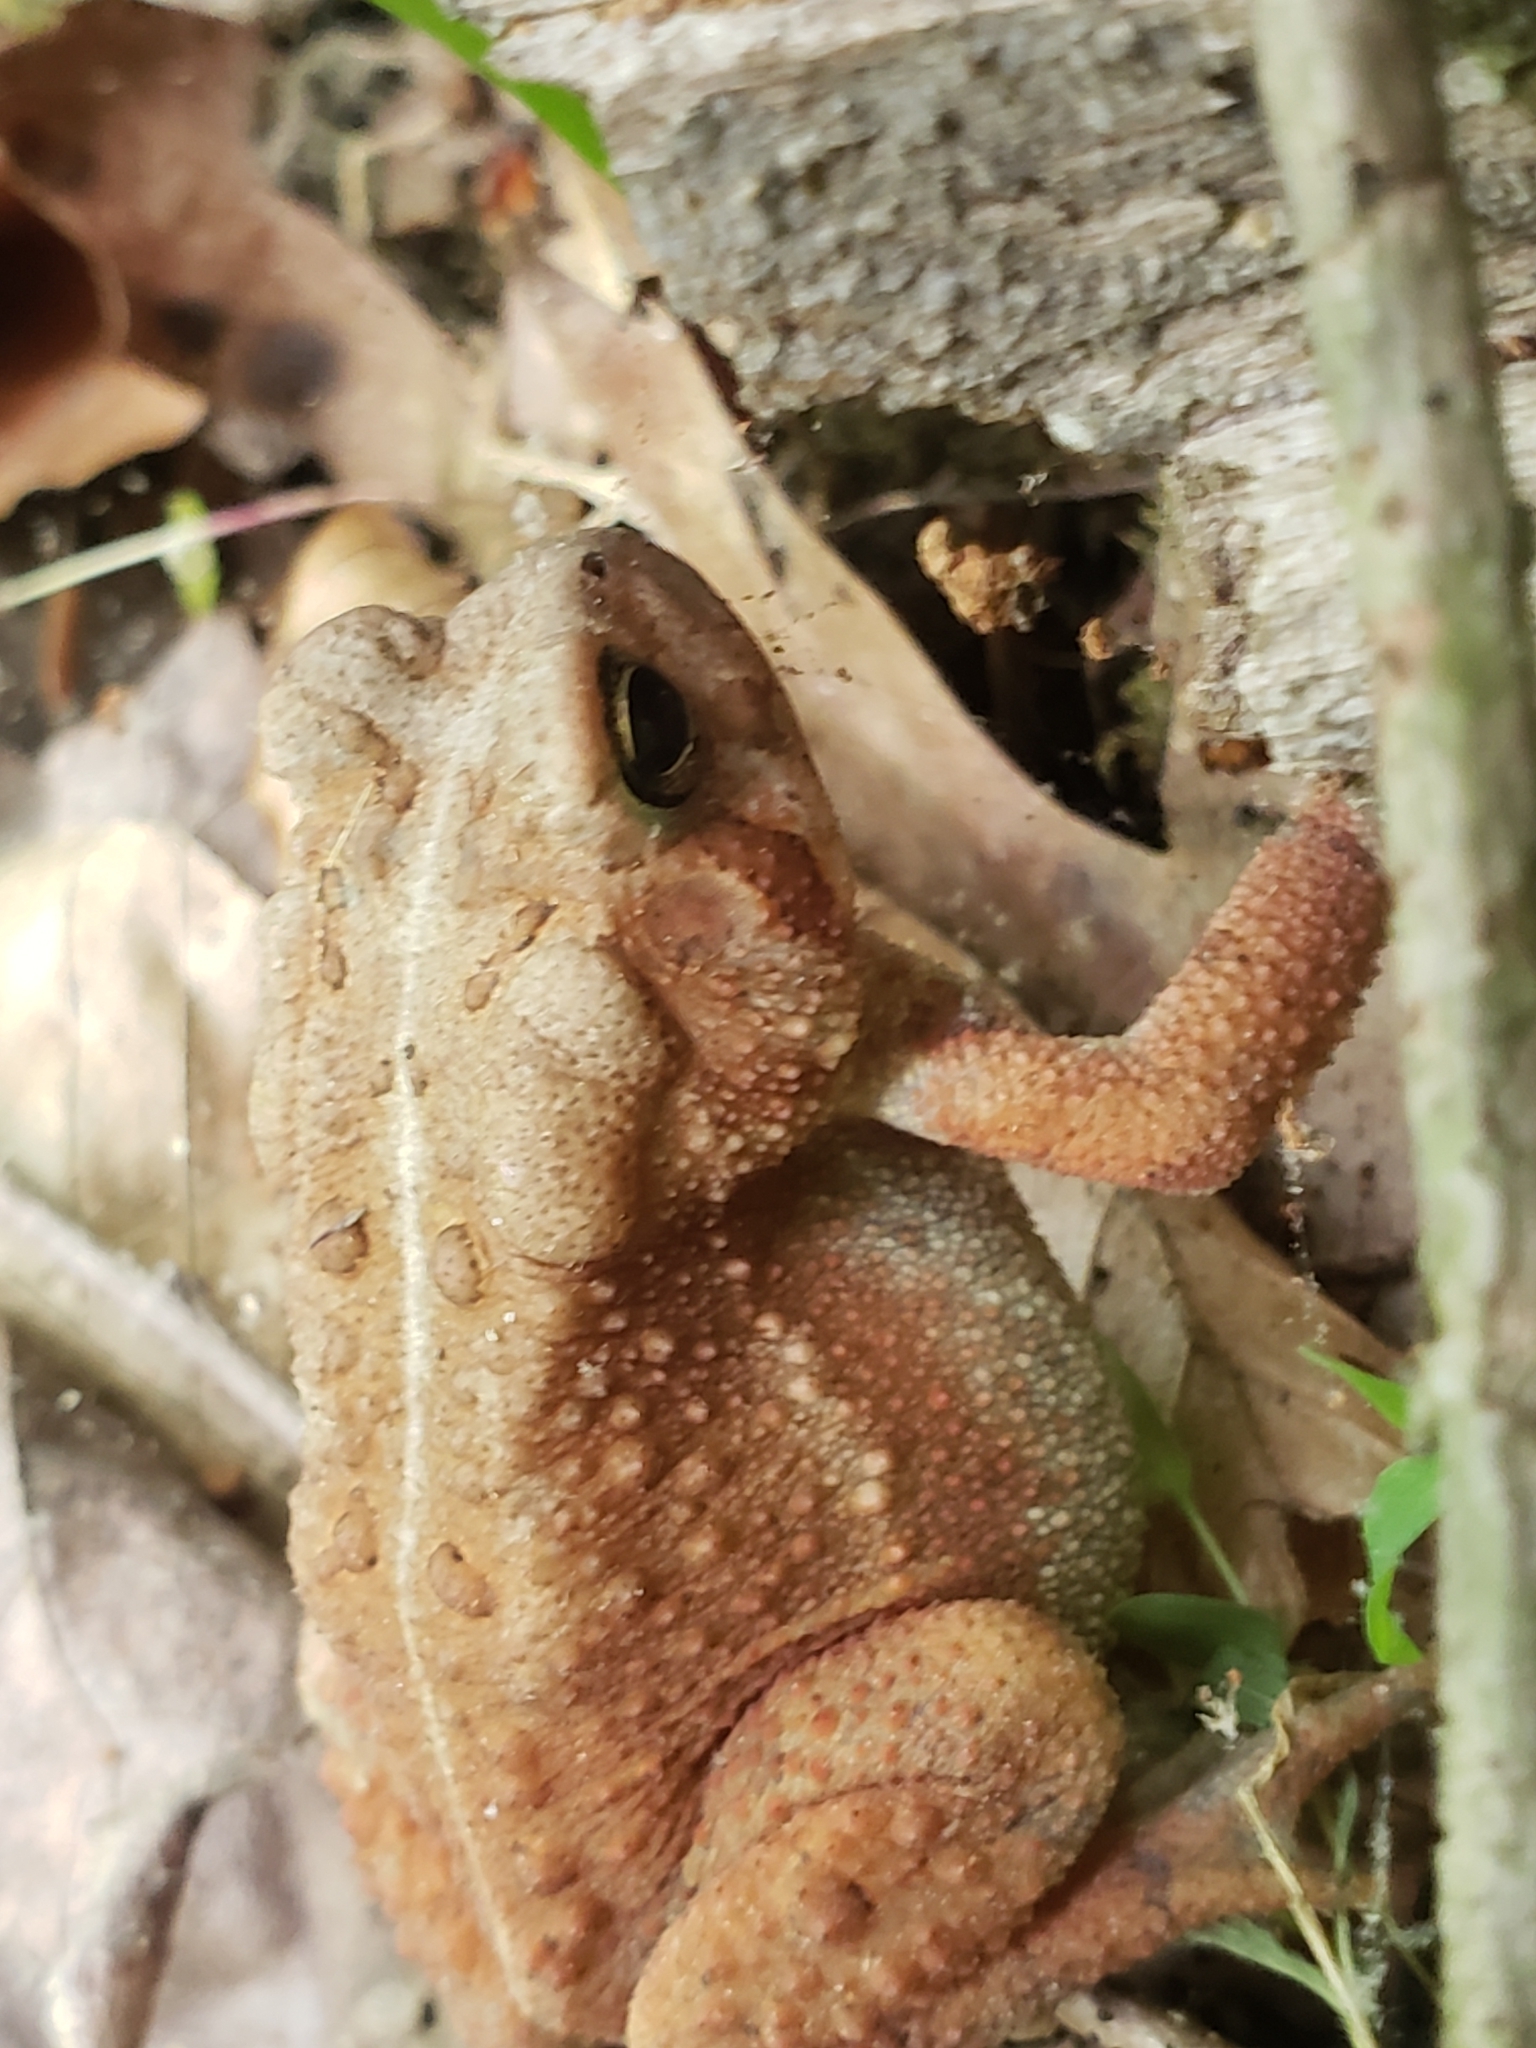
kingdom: Animalia
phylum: Chordata
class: Amphibia
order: Anura
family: Bufonidae
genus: Anaxyrus
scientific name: Anaxyrus americanus
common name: American toad
